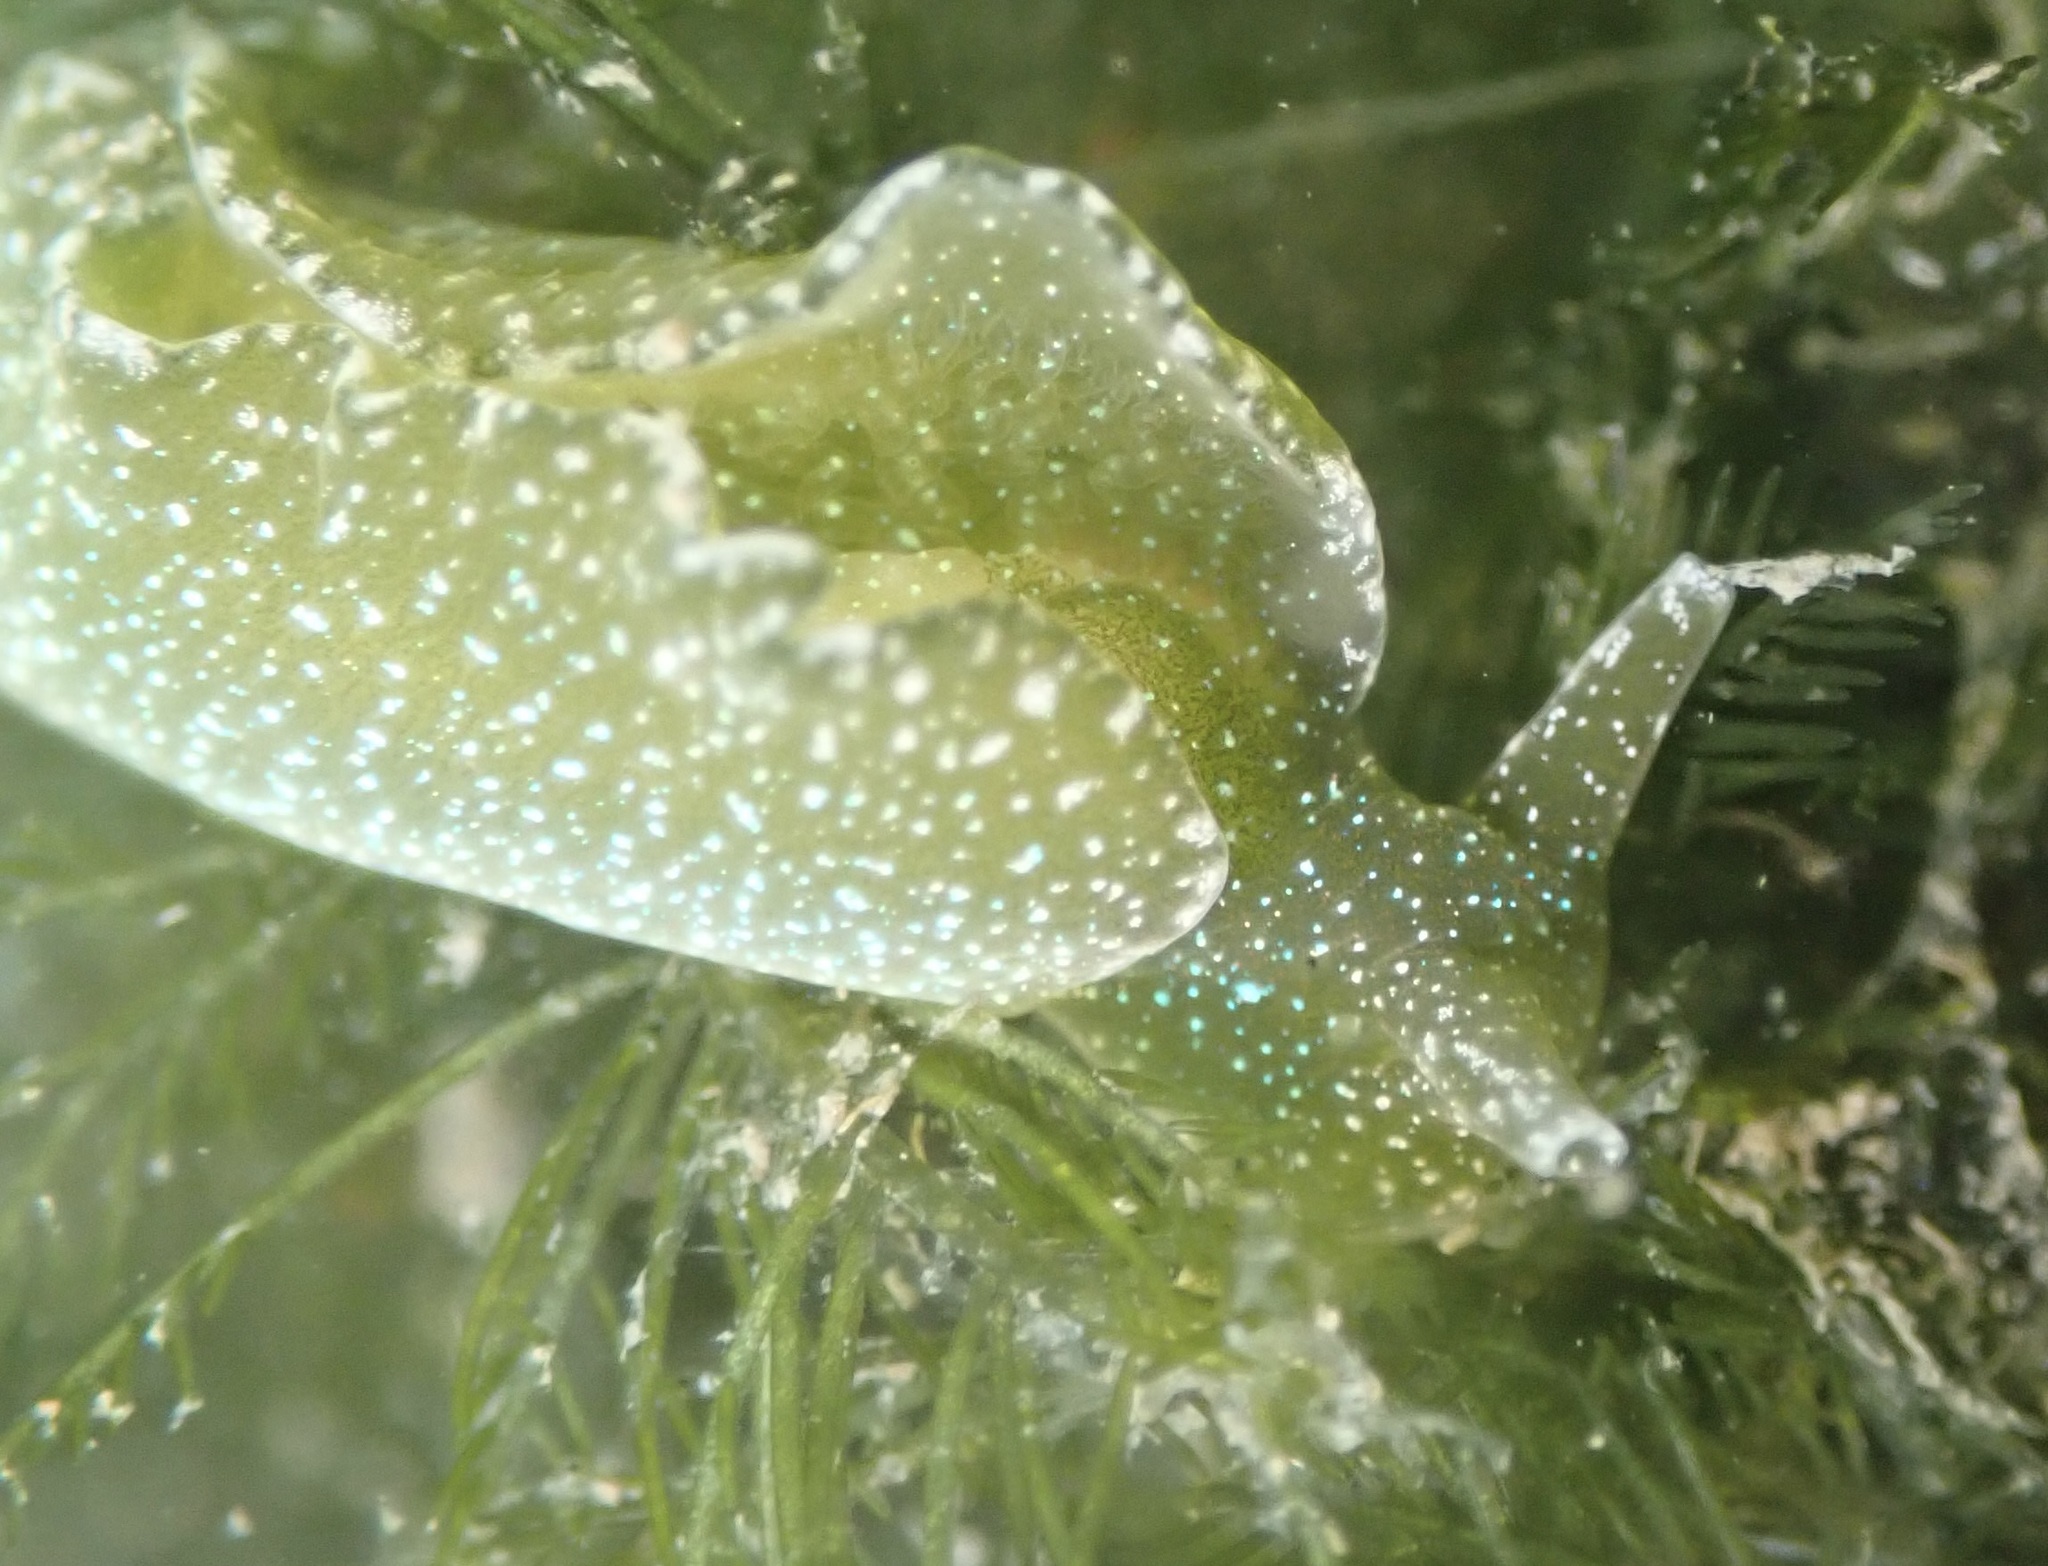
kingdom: Animalia
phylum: Mollusca
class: Gastropoda
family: Plakobranchidae
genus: Elysia
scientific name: Elysia hedgpethi
